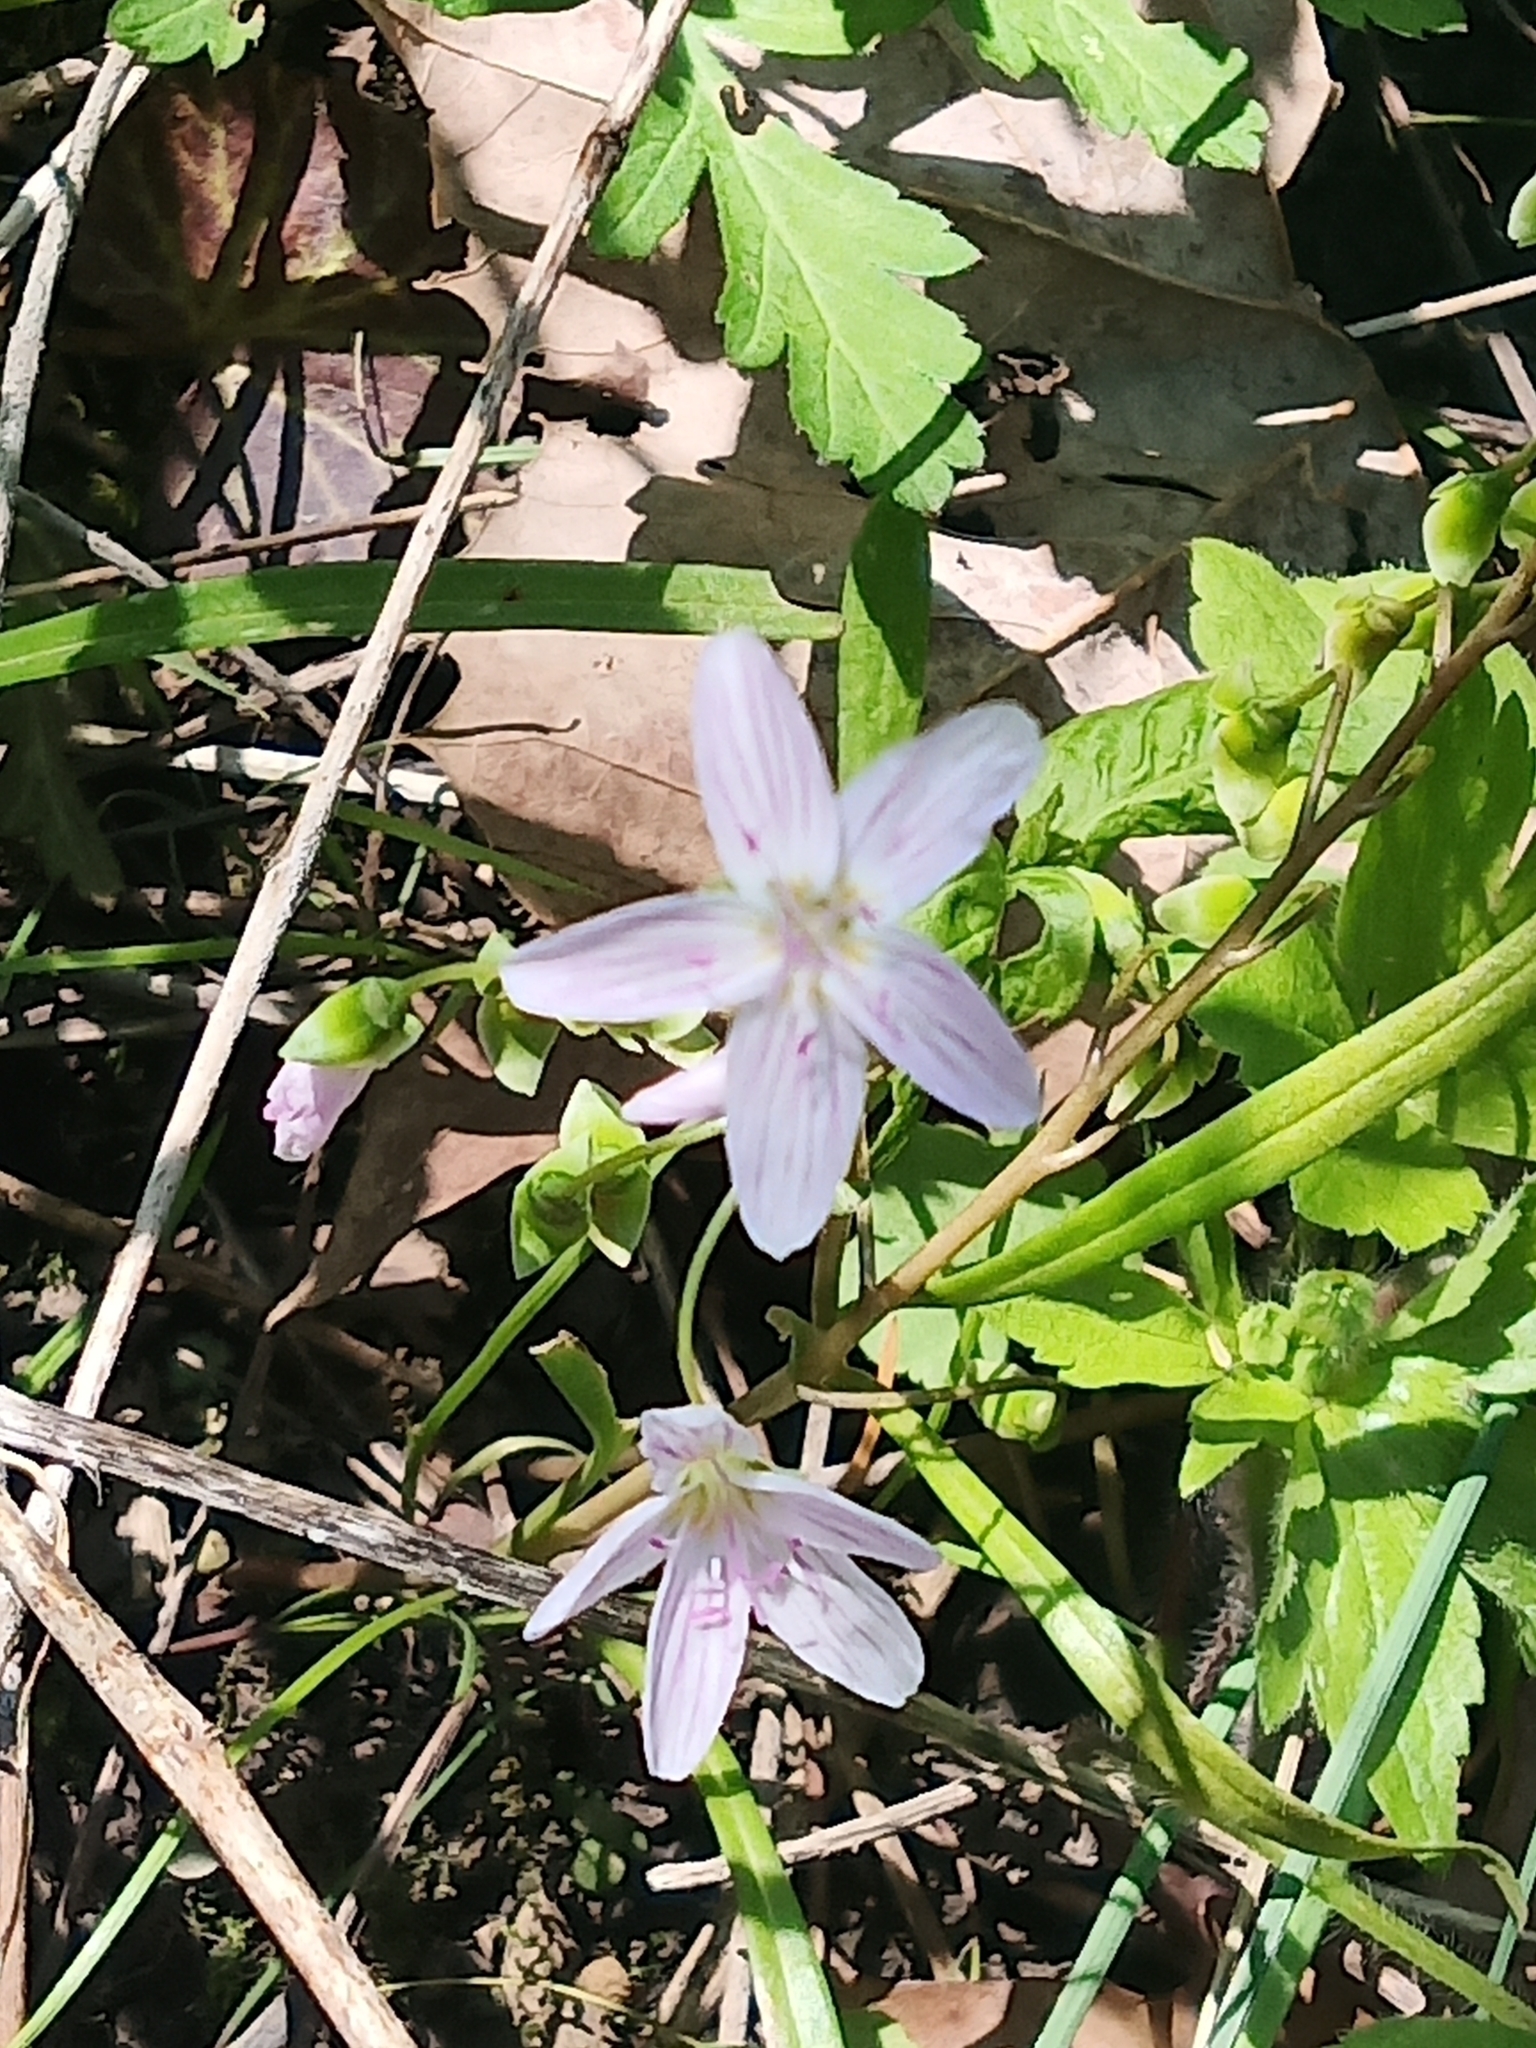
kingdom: Plantae
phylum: Tracheophyta
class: Magnoliopsida
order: Caryophyllales
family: Montiaceae
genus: Claytonia
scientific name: Claytonia virginica
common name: Virginia springbeauty
